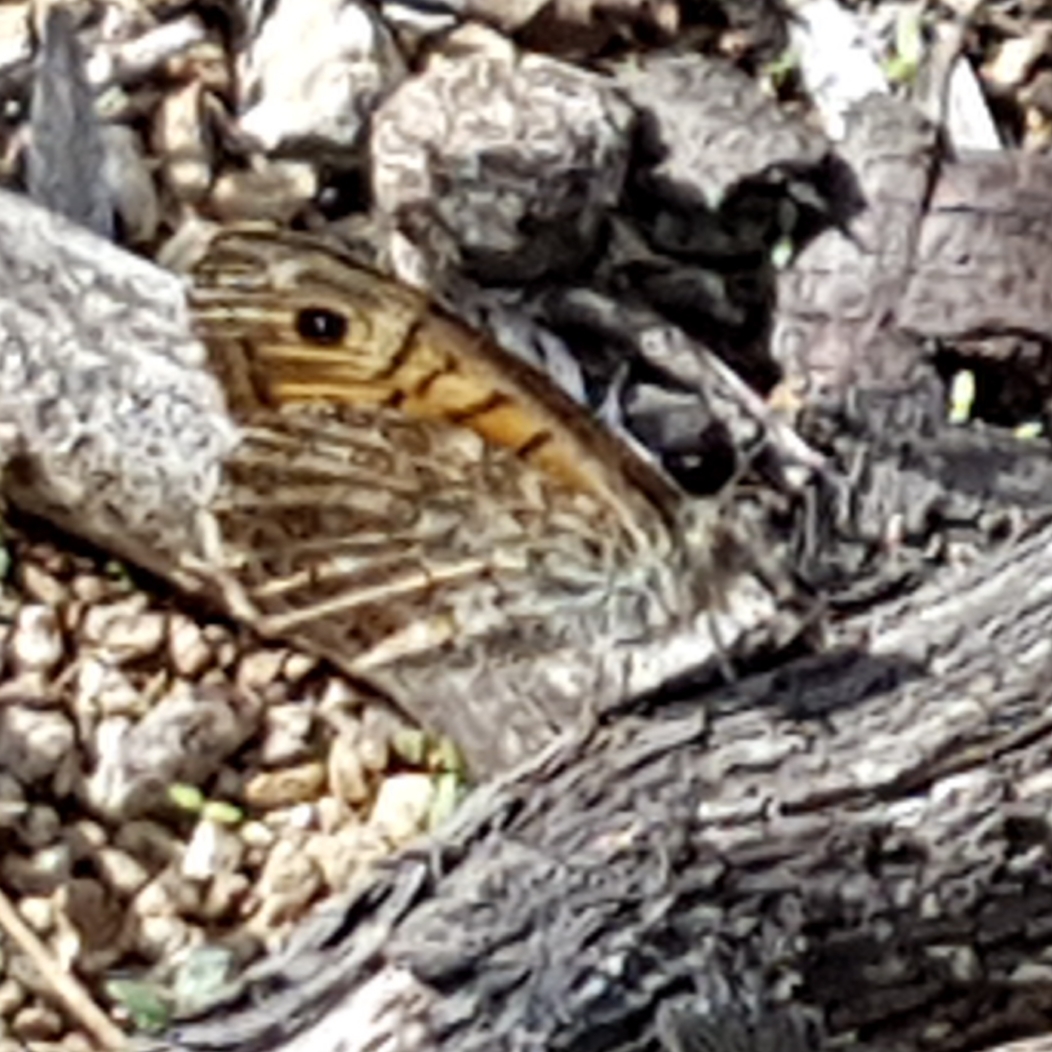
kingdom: Animalia
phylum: Arthropoda
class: Insecta
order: Lepidoptera
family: Nymphalidae
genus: Pararge
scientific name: Pararge Lasiommata megera
